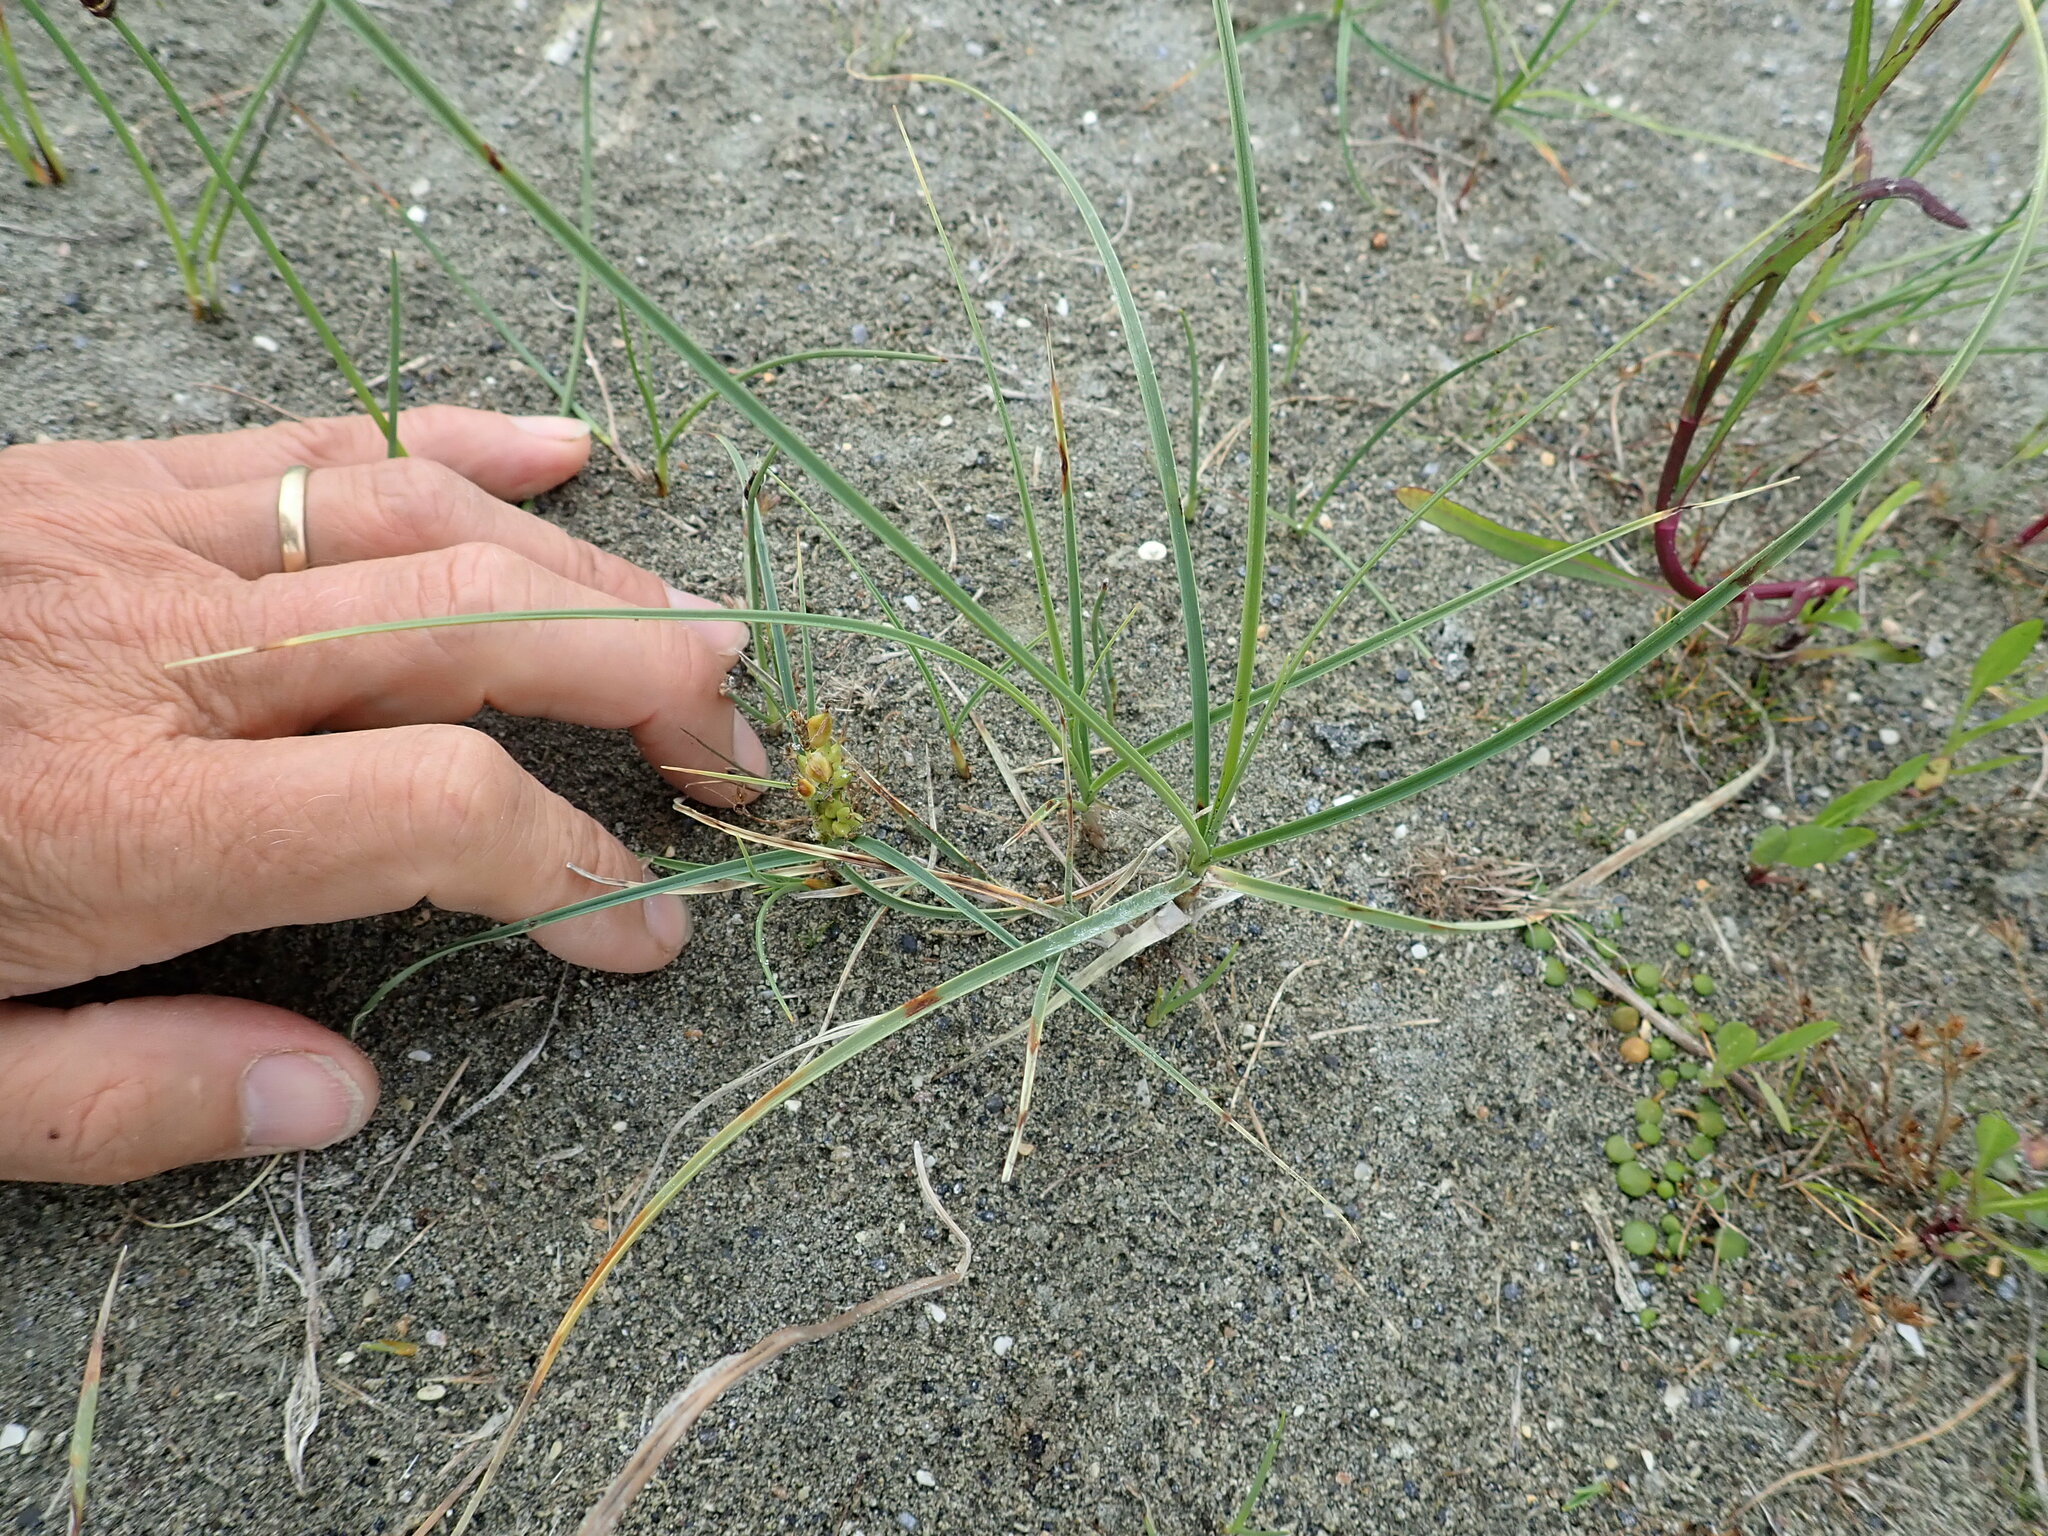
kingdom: Plantae
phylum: Tracheophyta
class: Liliopsida
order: Poales
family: Cyperaceae
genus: Carex
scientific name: Carex pumila
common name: Dwarf sedge
